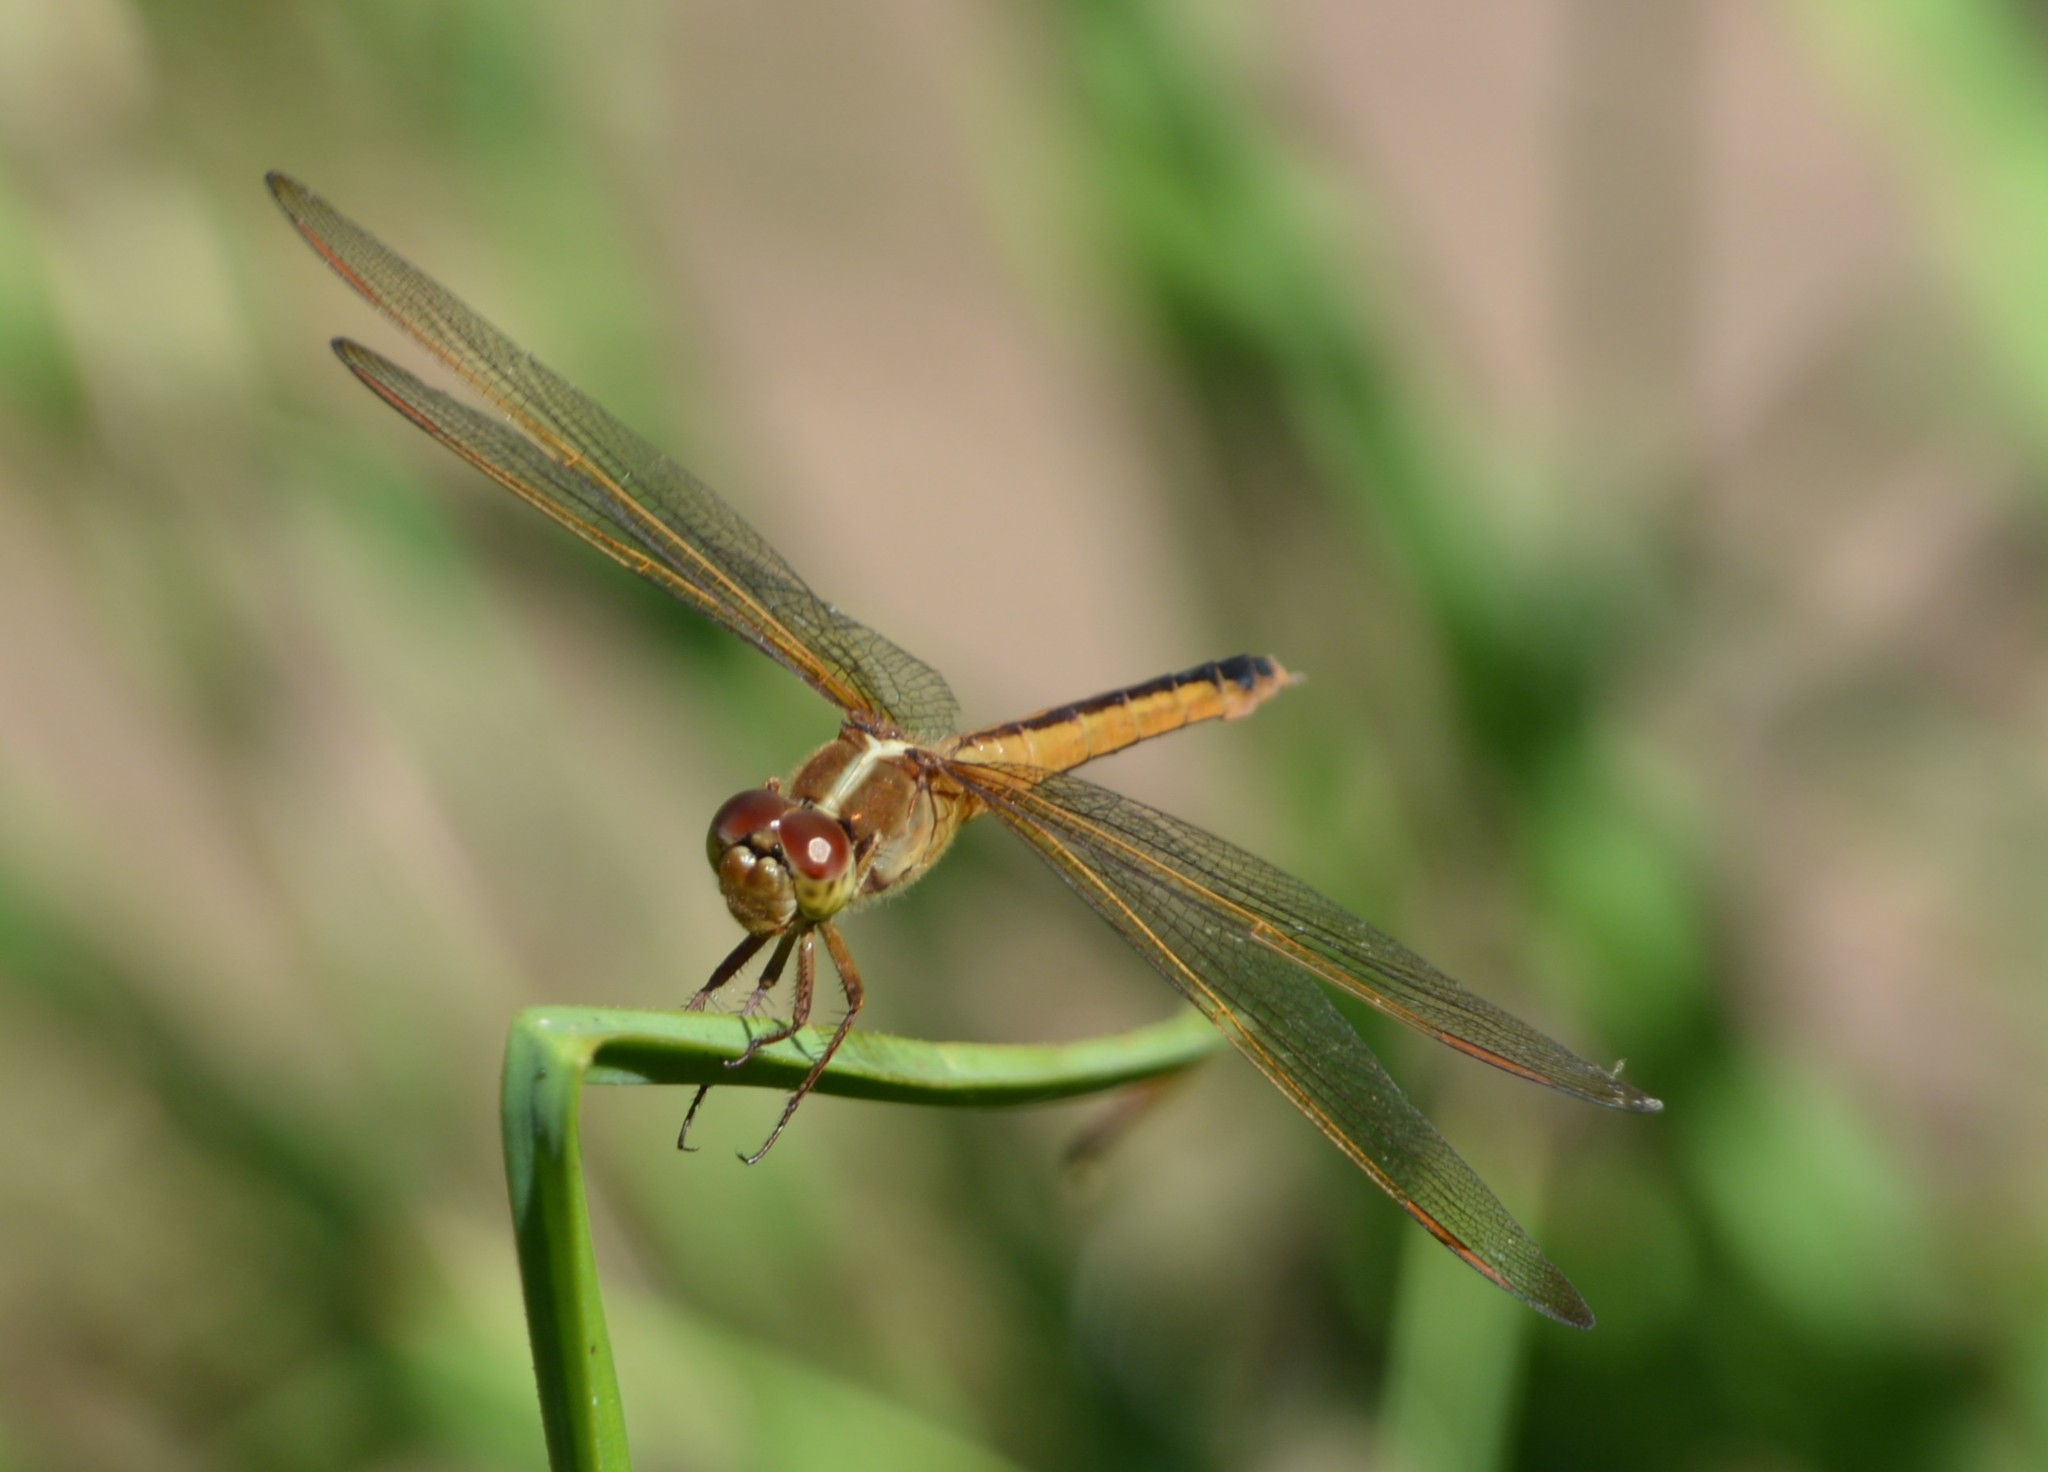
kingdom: Animalia
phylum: Arthropoda
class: Insecta
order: Odonata
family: Libellulidae
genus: Libellula
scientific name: Libellula needhami
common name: Needham's skimmer
